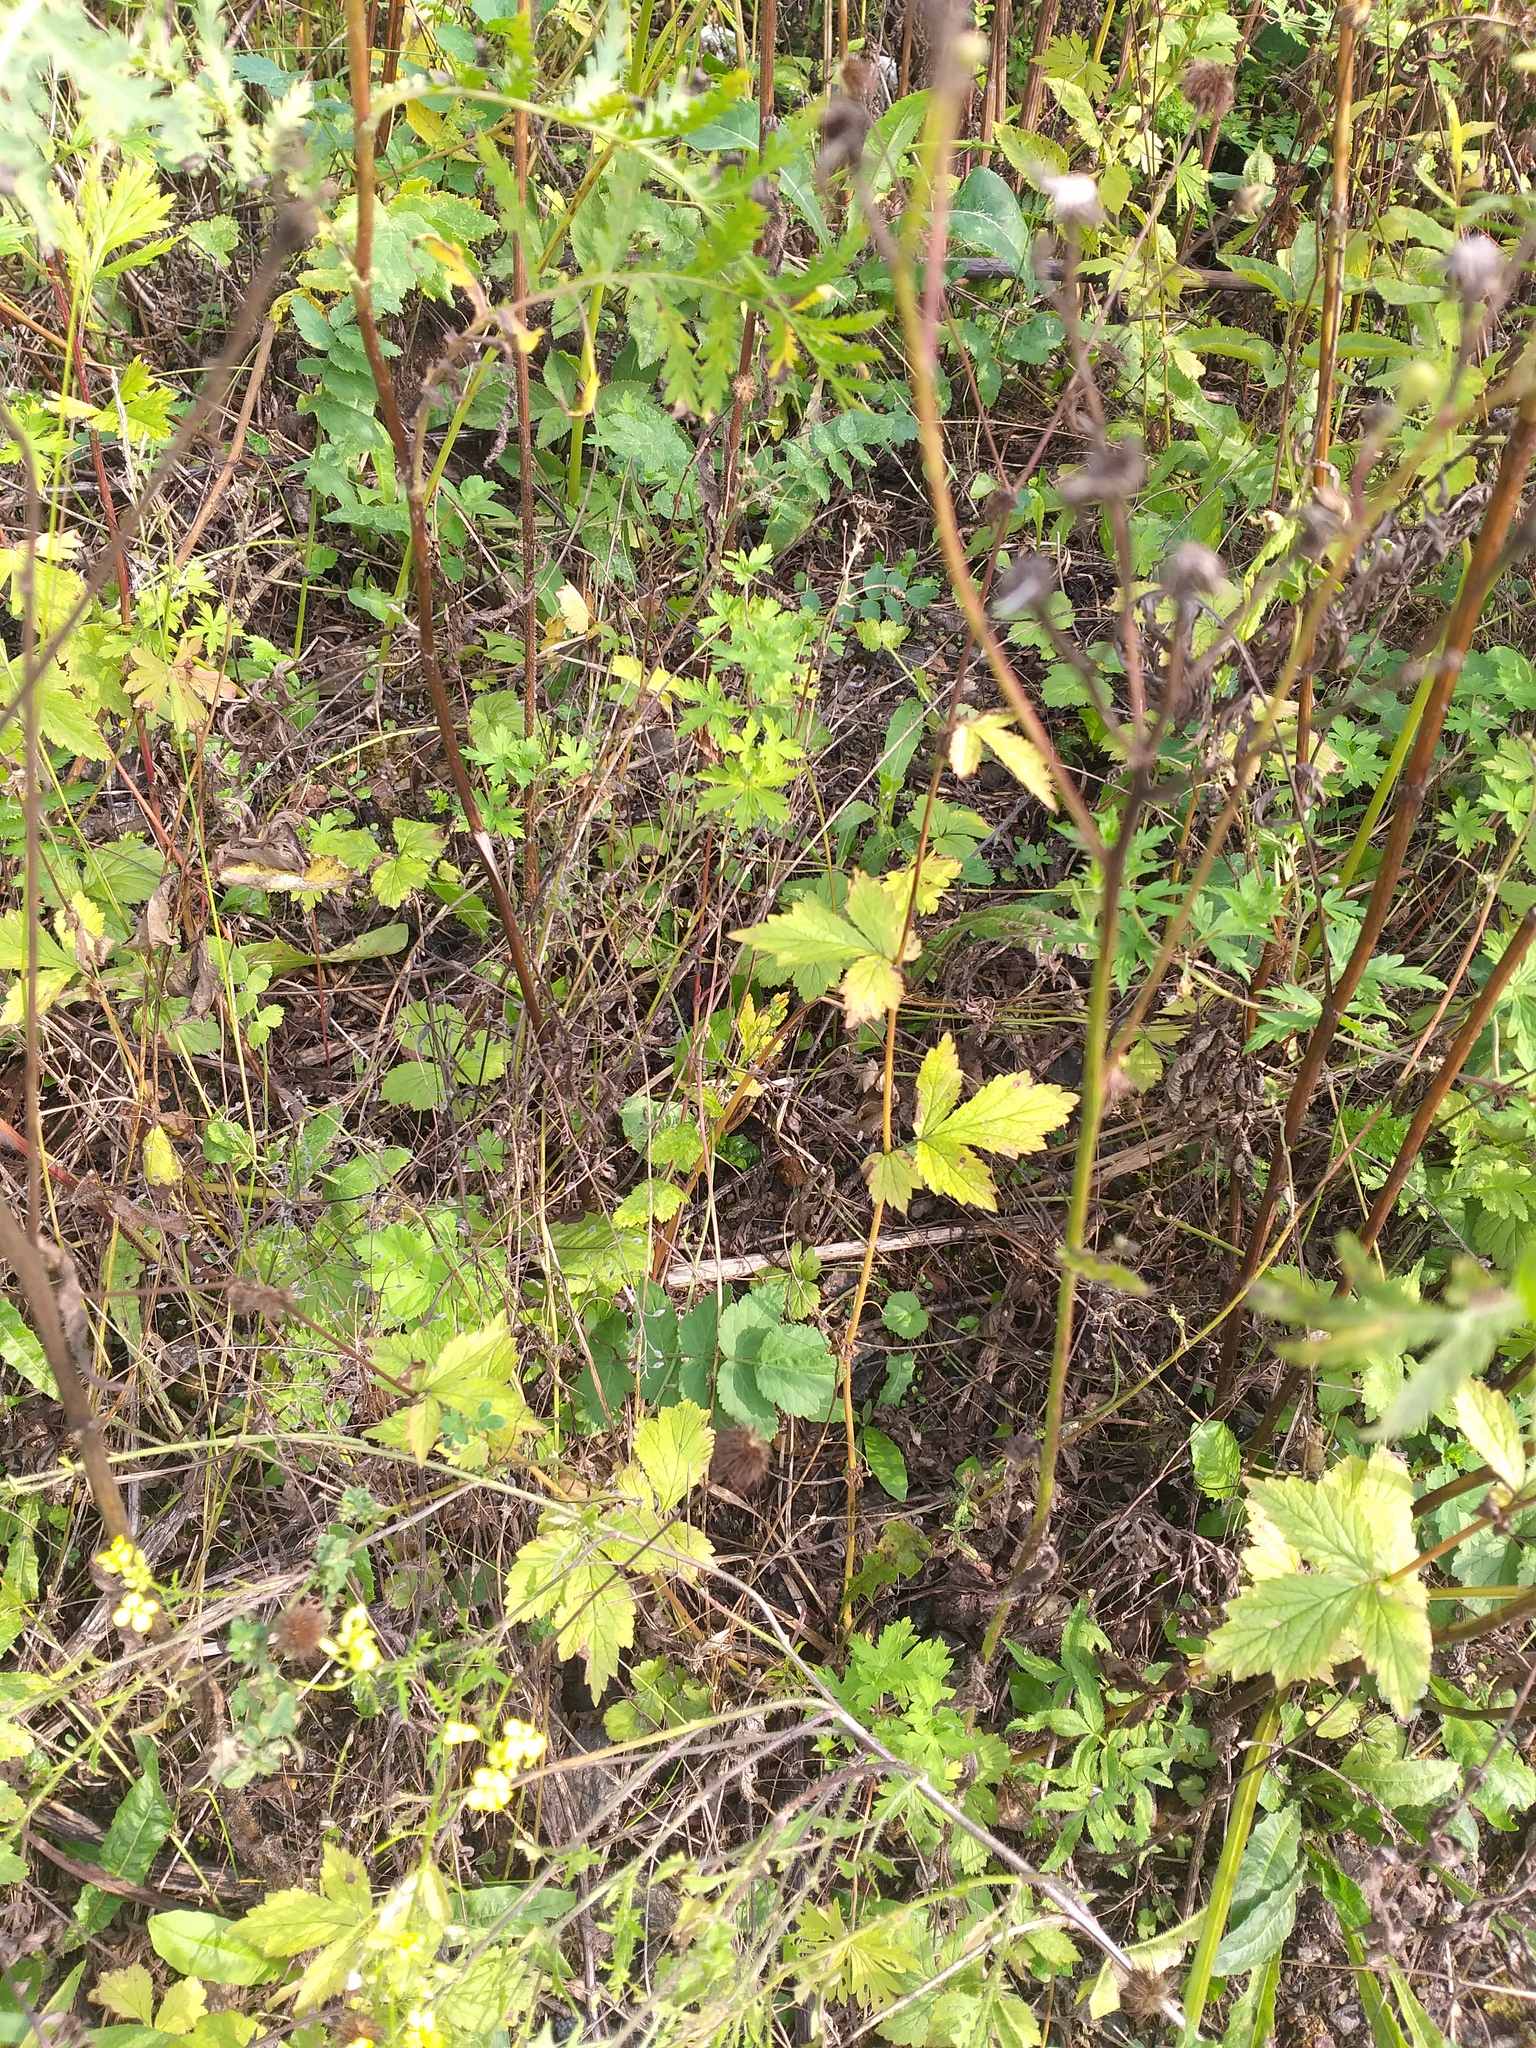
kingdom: Plantae
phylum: Tracheophyta
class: Magnoliopsida
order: Rosales
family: Rosaceae
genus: Geum
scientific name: Geum urbanum
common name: Wood avens
